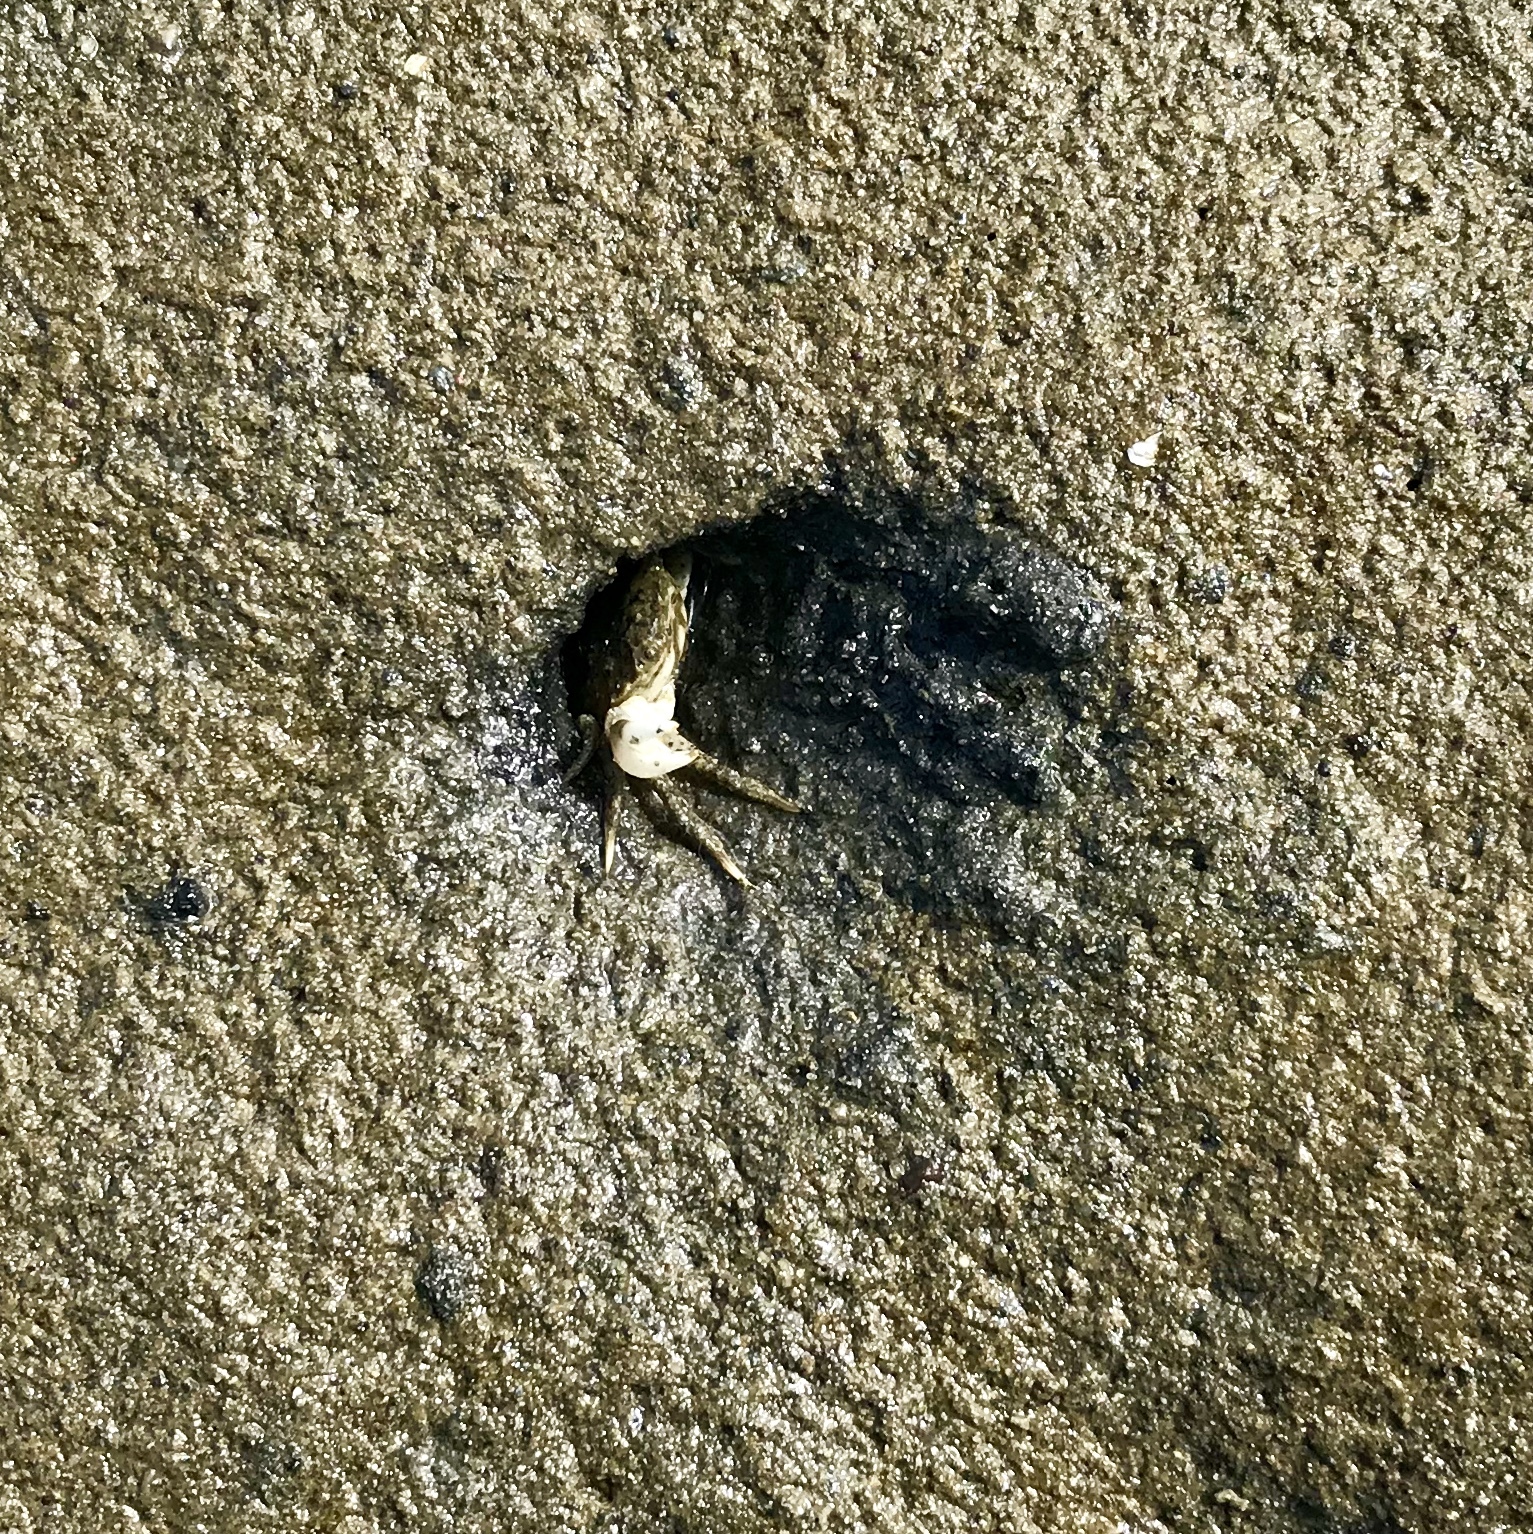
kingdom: Animalia
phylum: Arthropoda
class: Malacostraca
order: Decapoda
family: Varunidae
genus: Hemigrapsus
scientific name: Hemigrapsus oregonensis
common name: Yellow shore crab
